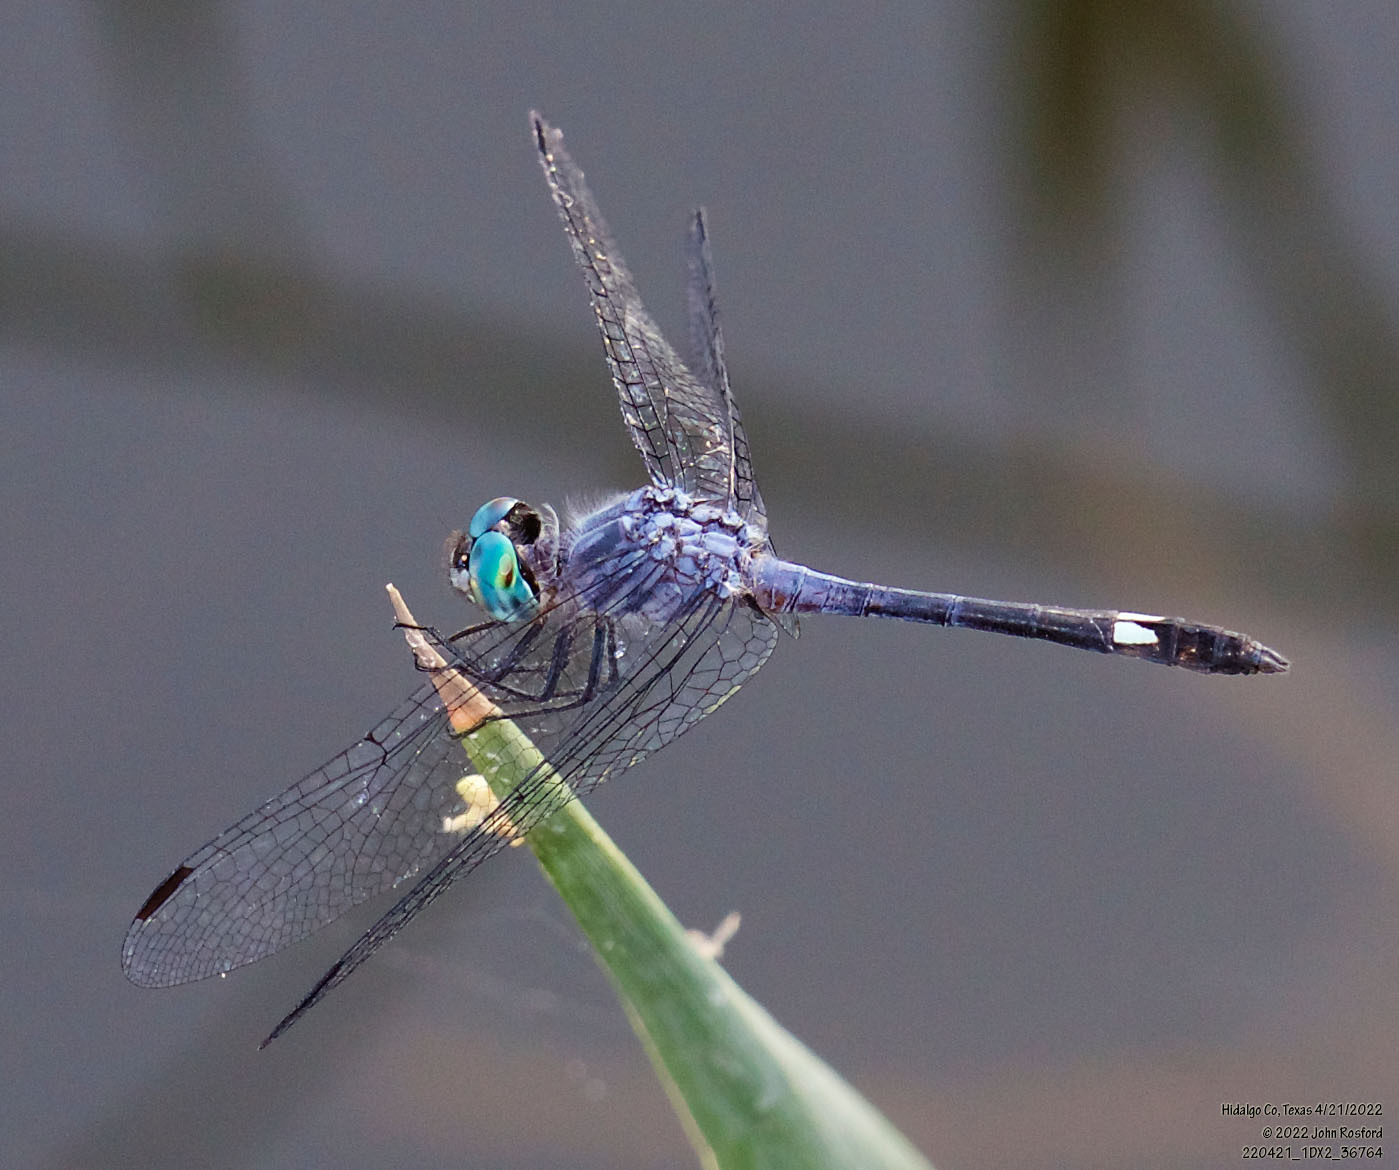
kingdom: Animalia
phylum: Arthropoda
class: Insecta
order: Odonata
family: Libellulidae
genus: Micrathyria
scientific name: Micrathyria aequalis
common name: Spot-tailed dasher
